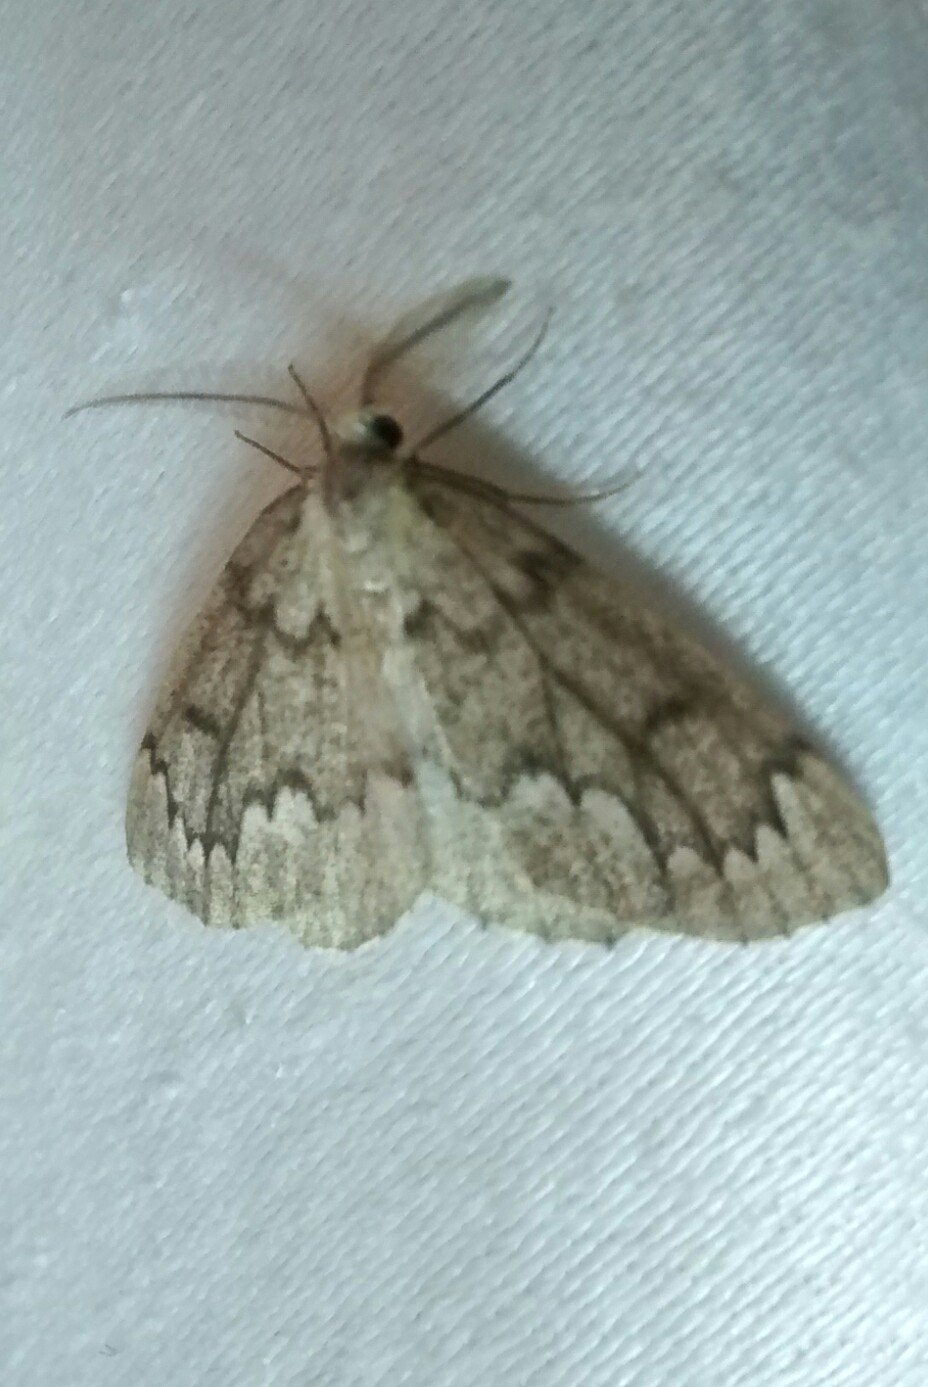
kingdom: Animalia
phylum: Arthropoda
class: Insecta
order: Lepidoptera
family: Geometridae
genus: Nepytia
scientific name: Nepytia canosaria
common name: False hemlock looper
